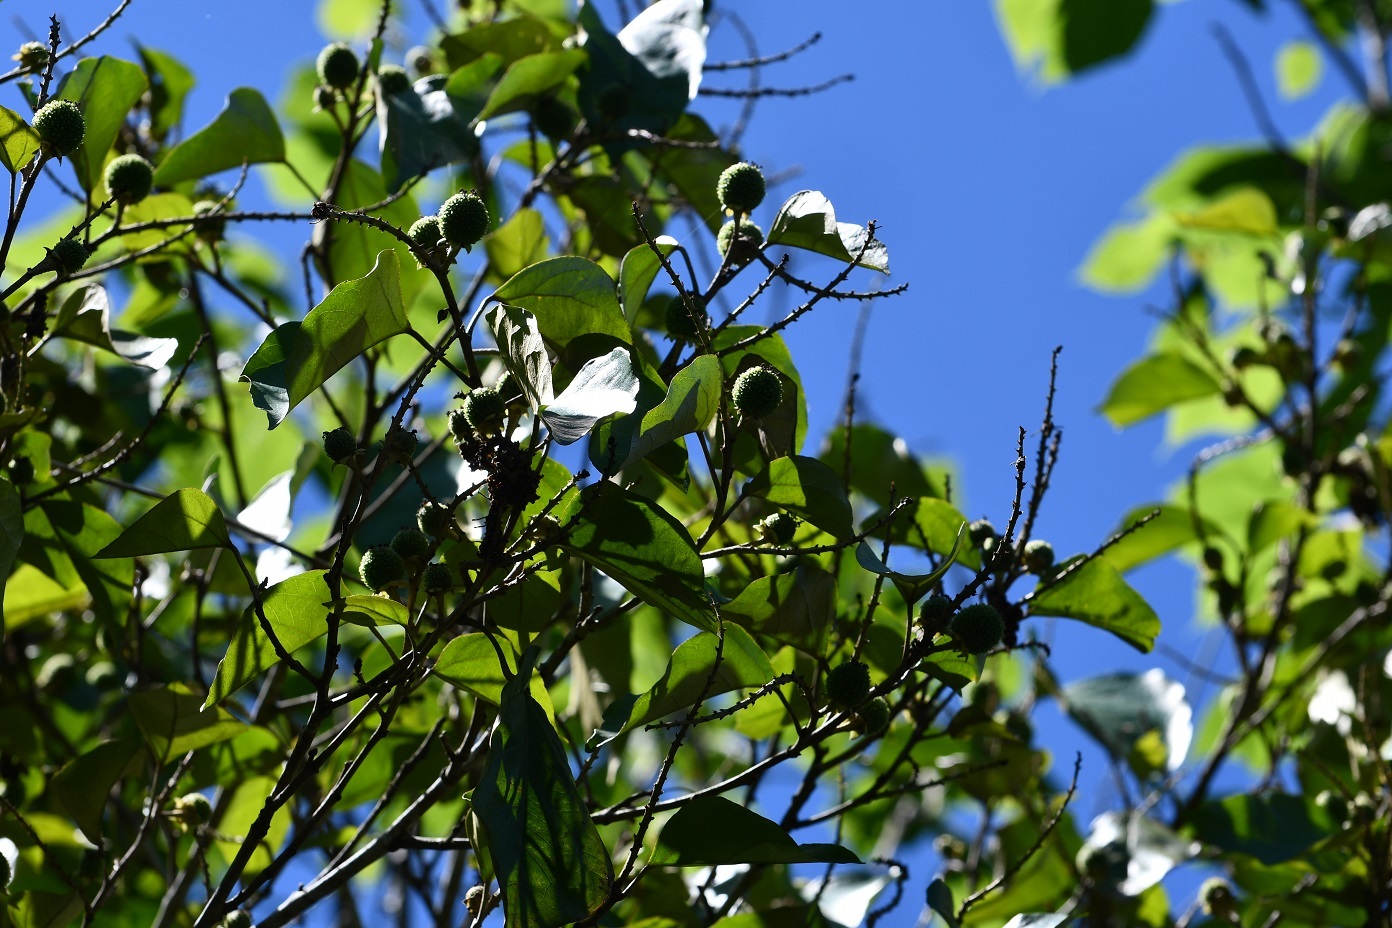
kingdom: Plantae
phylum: Tracheophyta
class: Magnoliopsida
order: Malpighiales
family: Euphorbiaceae
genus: Croton
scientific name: Croton guatemalensis
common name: Copalchi
